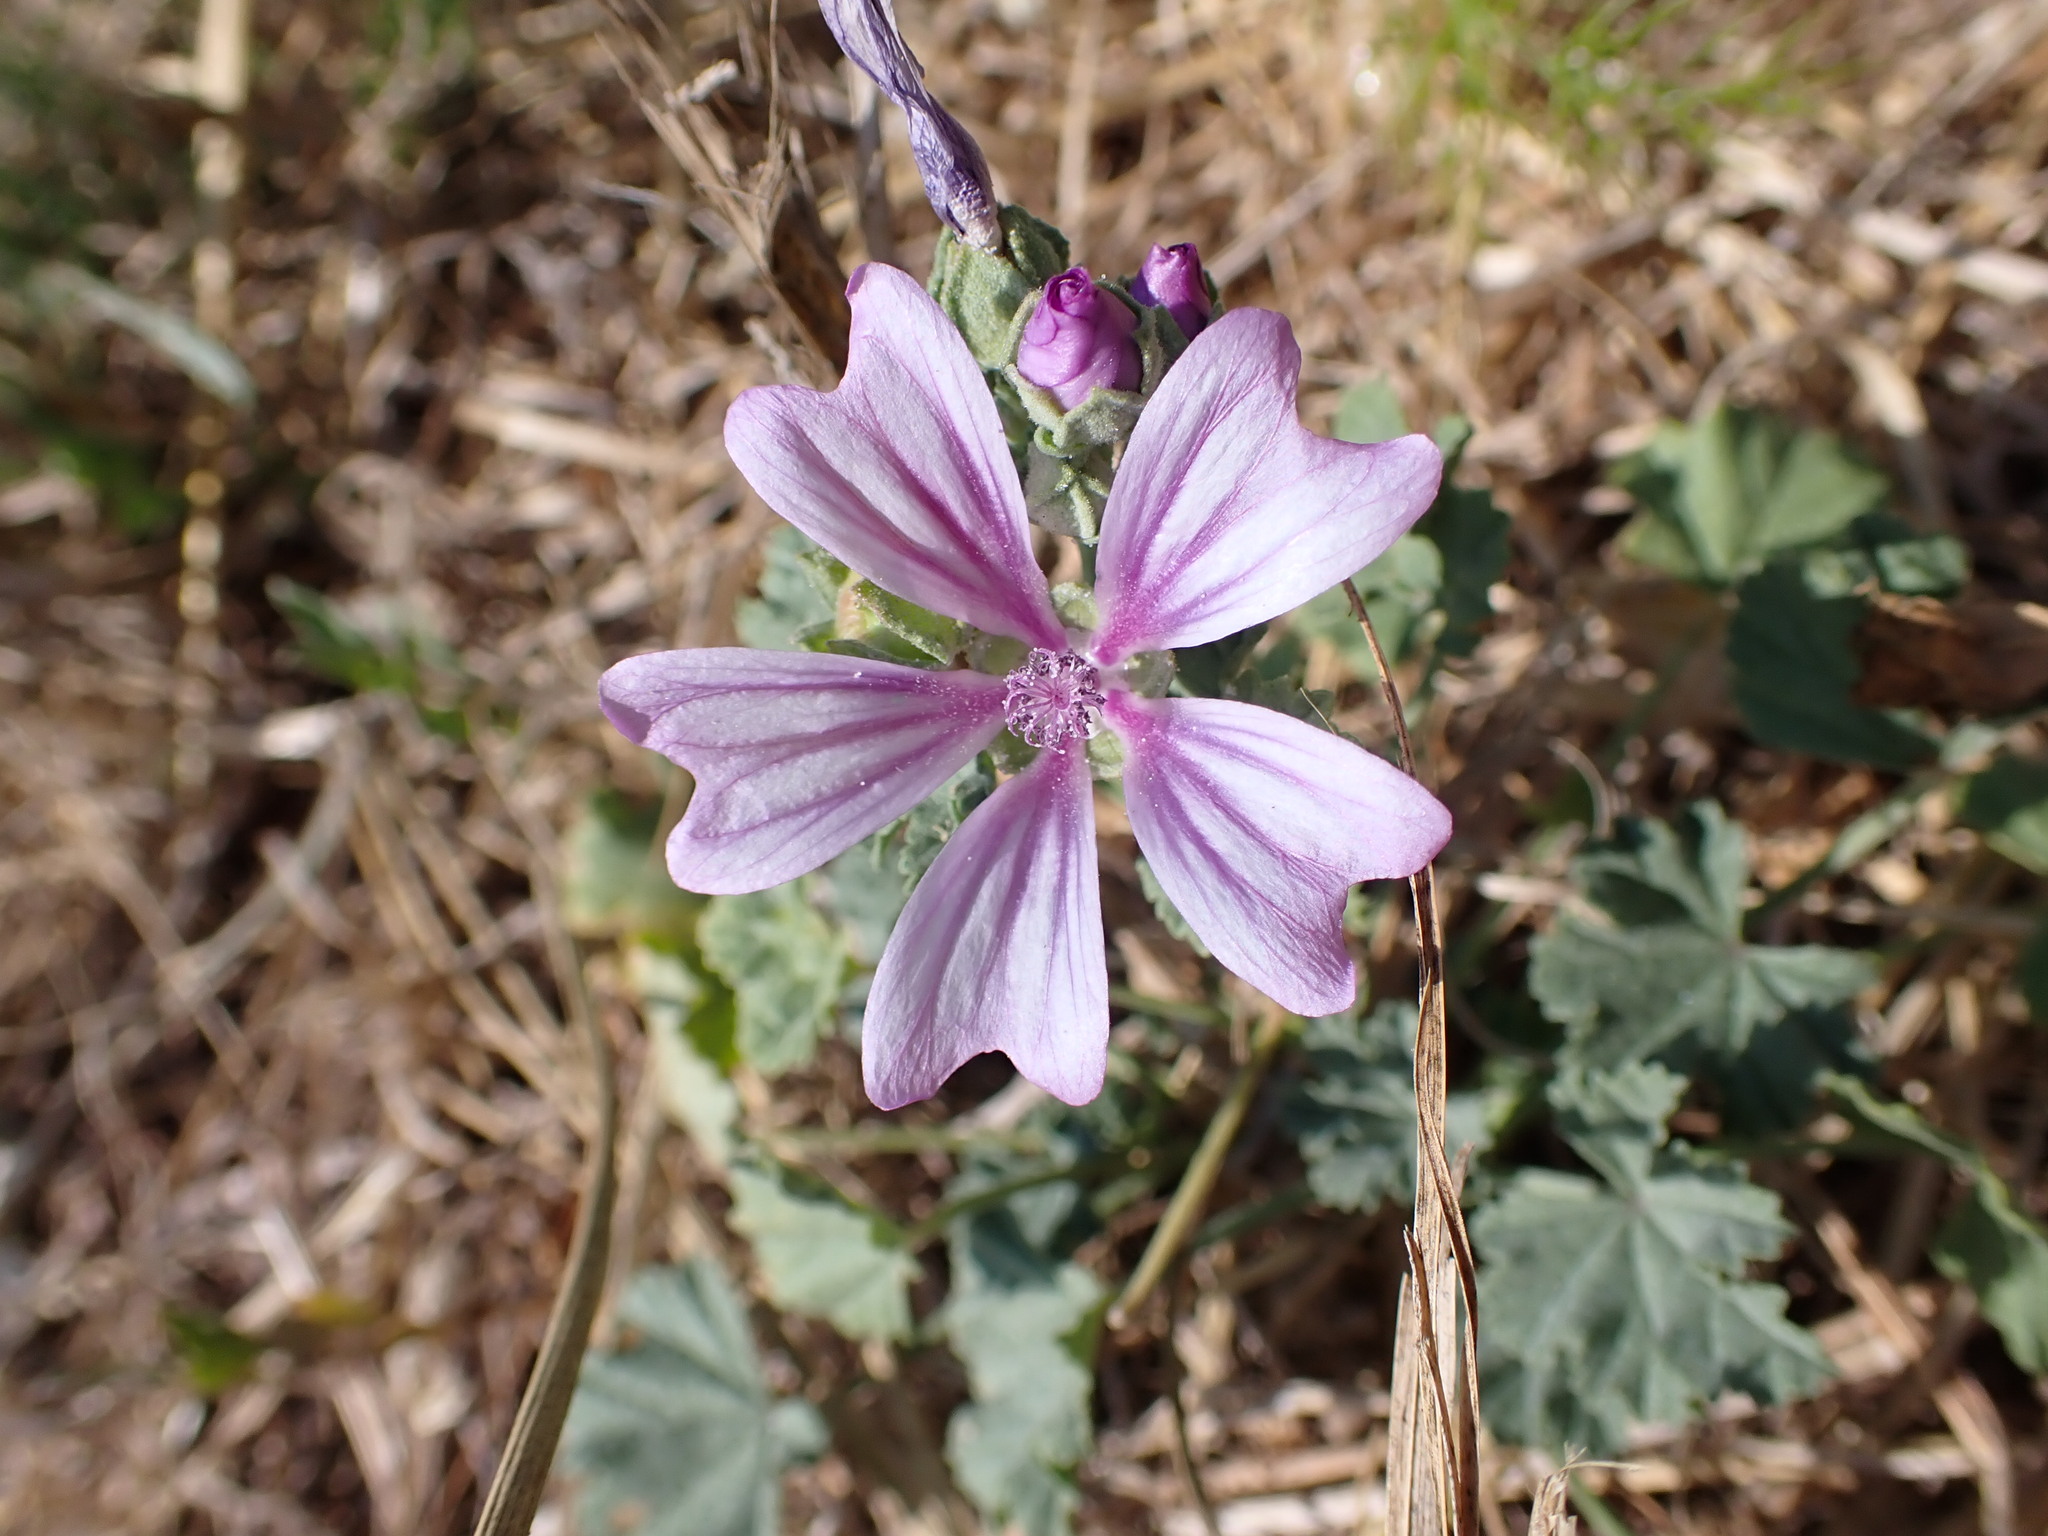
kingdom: Plantae
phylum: Tracheophyta
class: Magnoliopsida
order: Malvales
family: Malvaceae
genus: Malva
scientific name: Malva sylvestris
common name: Common mallow
